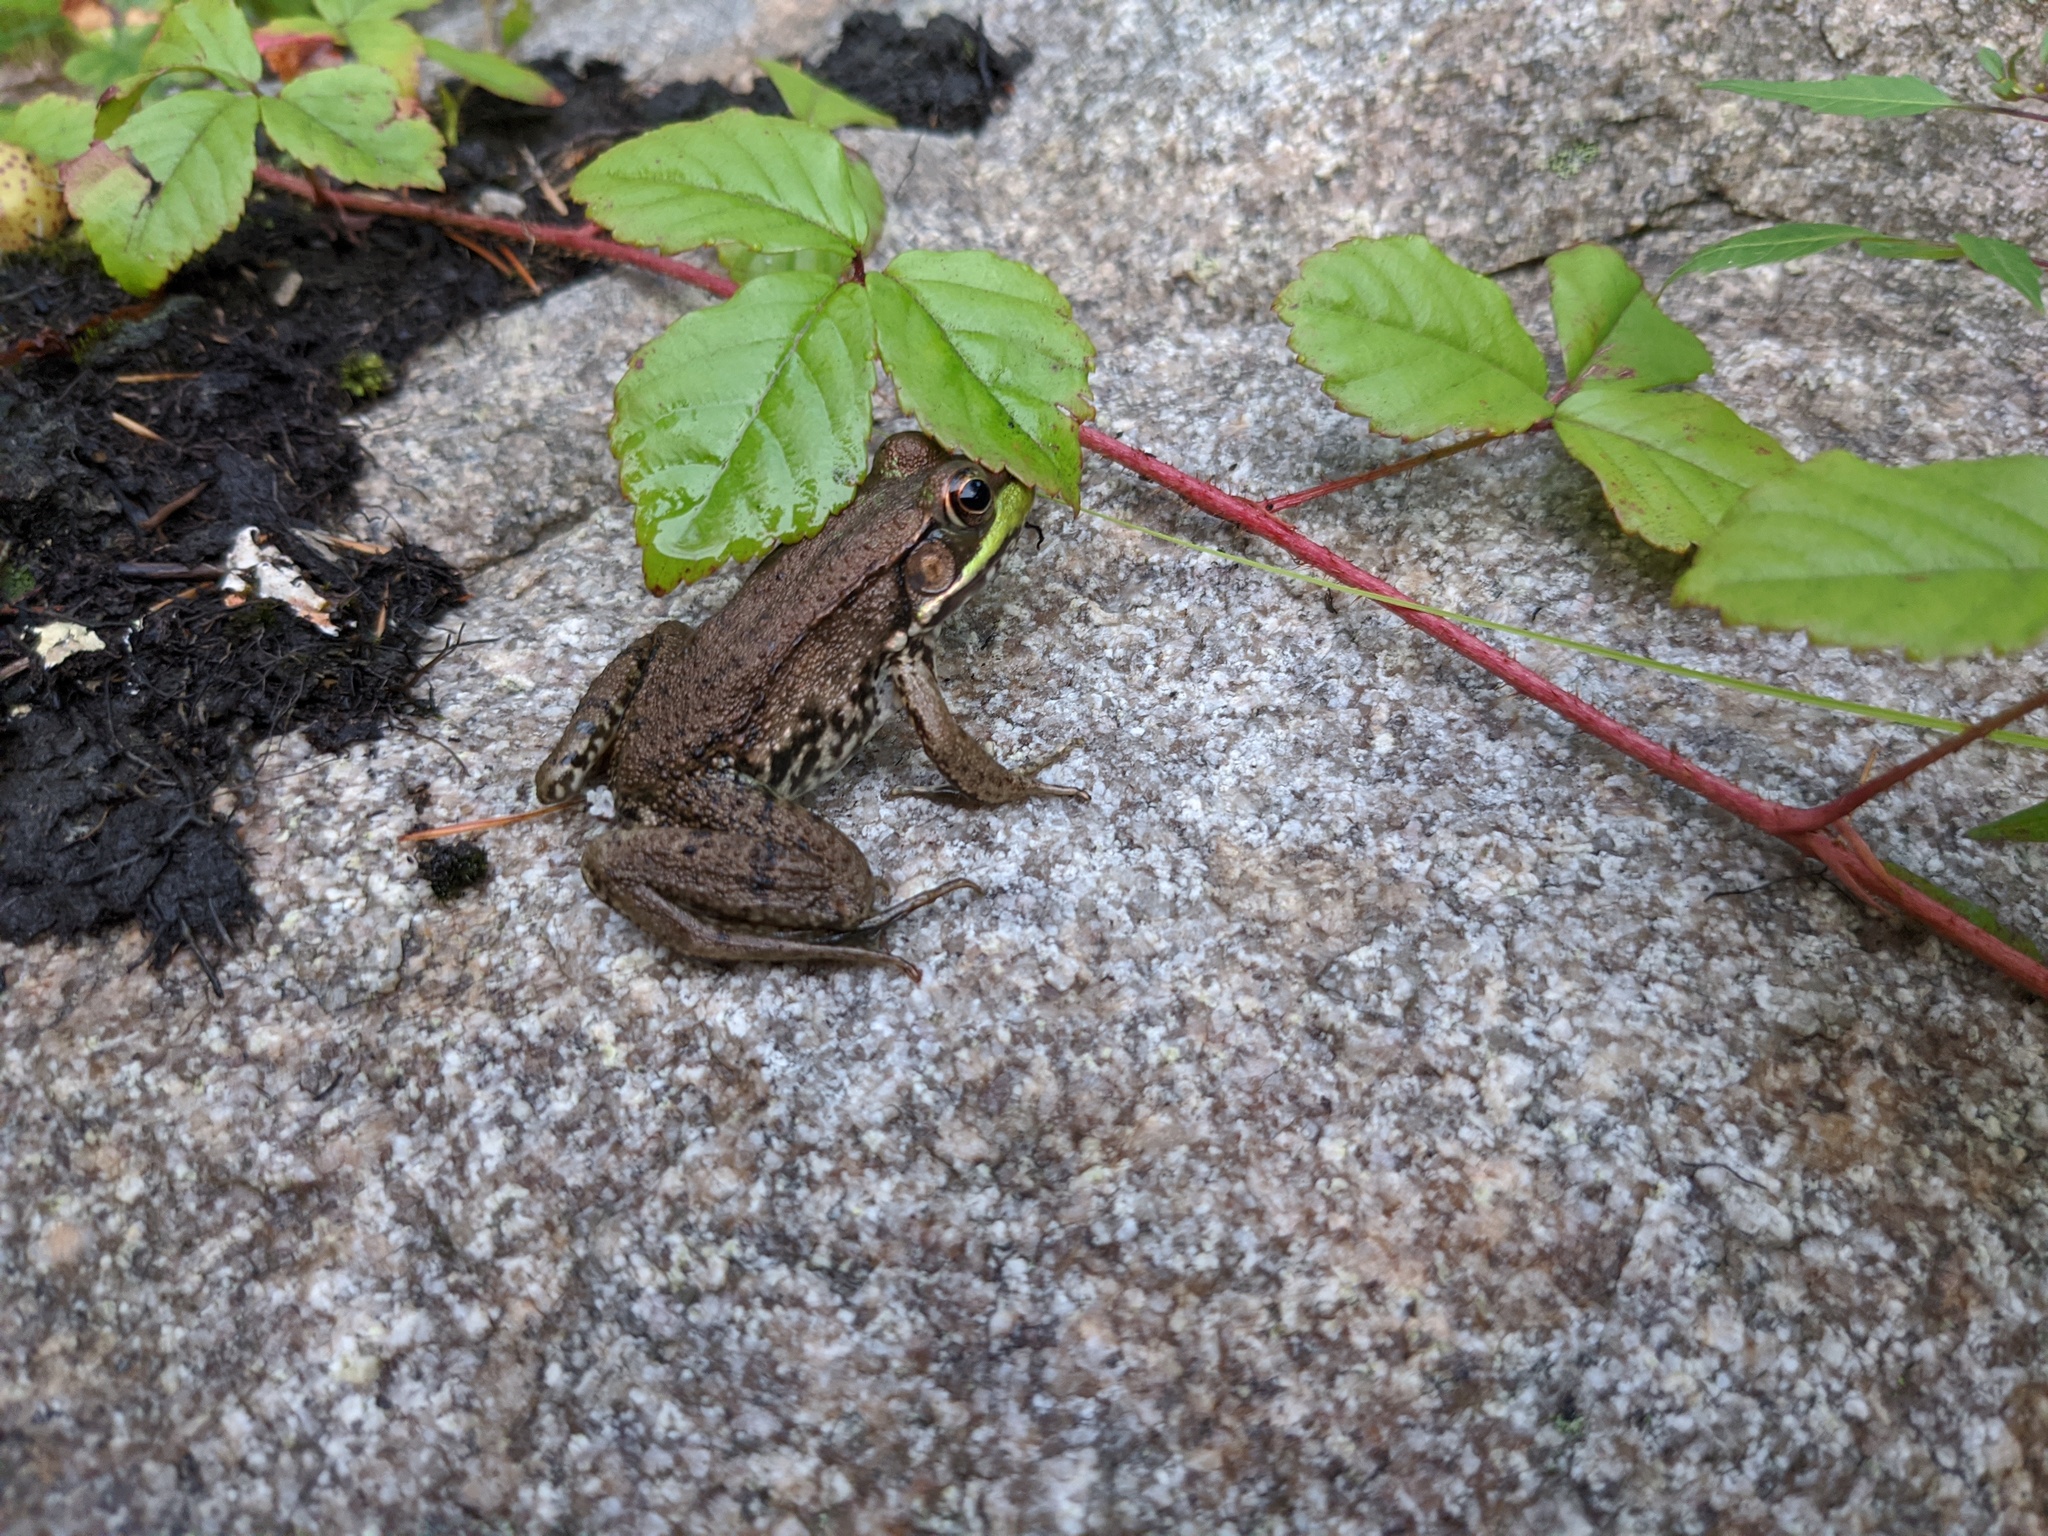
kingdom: Animalia
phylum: Chordata
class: Amphibia
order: Anura
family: Ranidae
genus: Lithobates
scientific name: Lithobates clamitans
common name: Green frog
